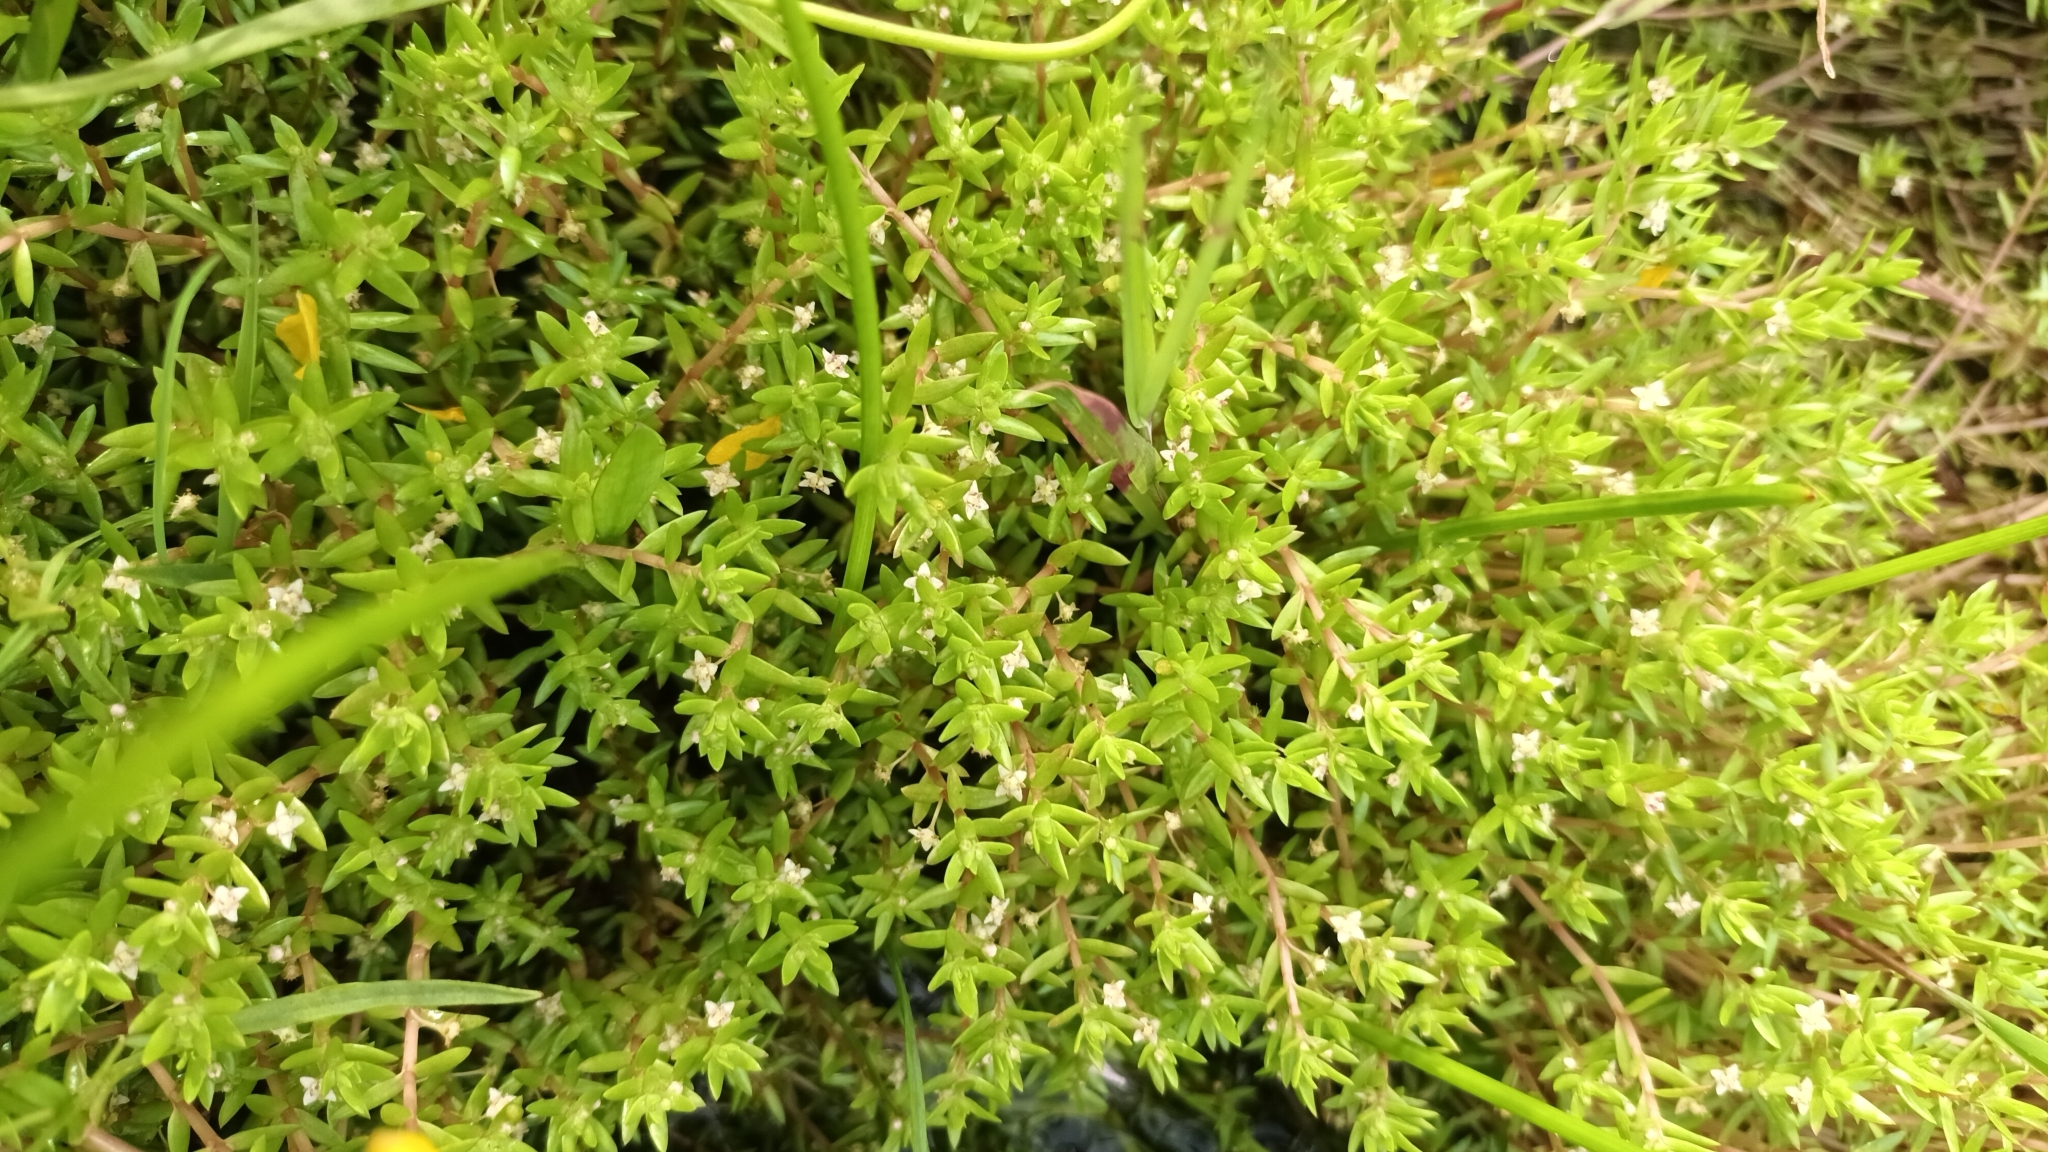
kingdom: Plantae
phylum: Tracheophyta
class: Magnoliopsida
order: Saxifragales
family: Crassulaceae
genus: Crassula
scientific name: Crassula helmsii
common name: New zealand pigmyweed
